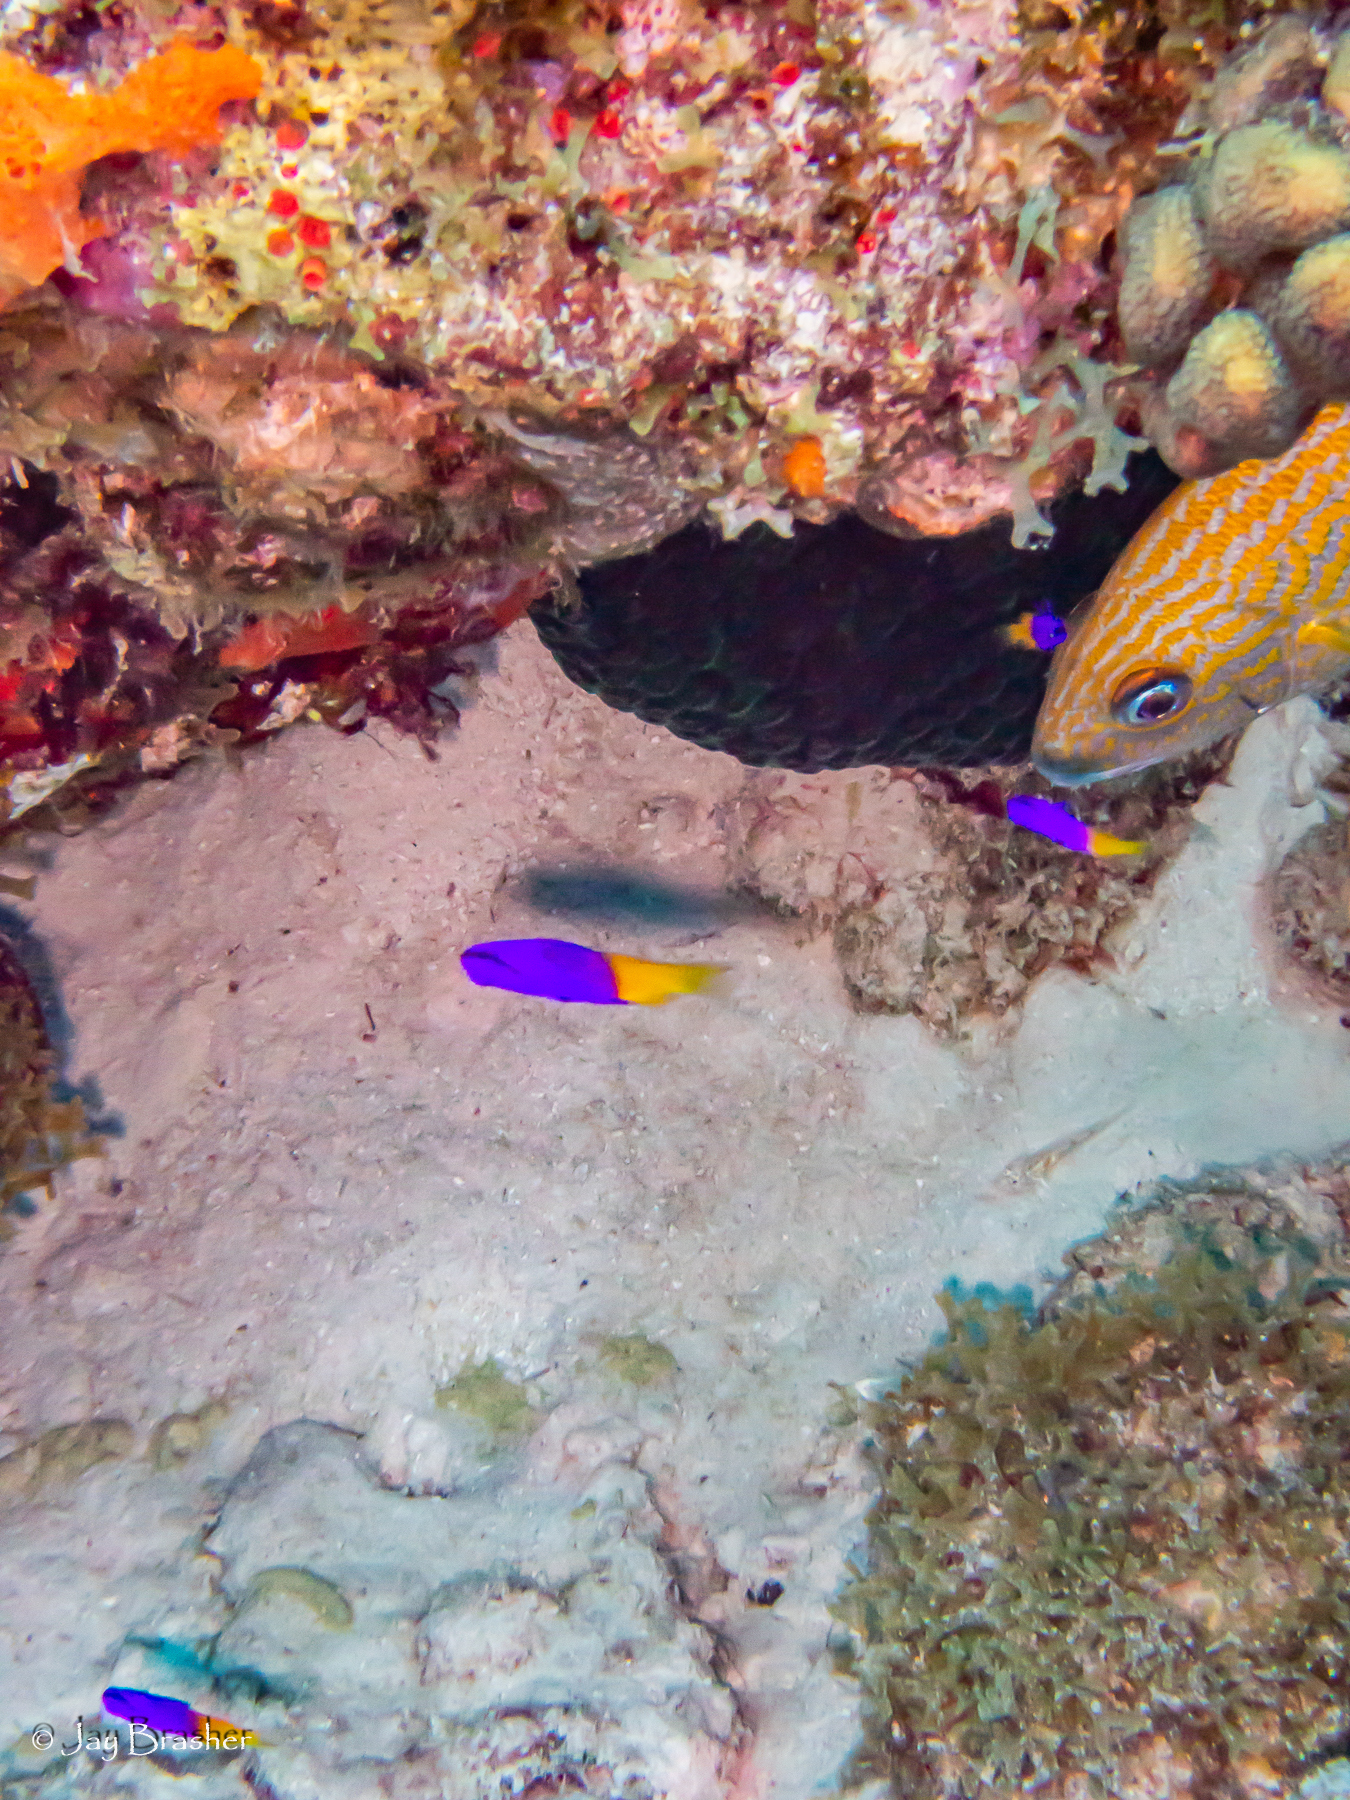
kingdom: Animalia
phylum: Chordata
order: Perciformes
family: Grammatidae
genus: Gramma
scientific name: Gramma loreto
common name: Fairy basslet
